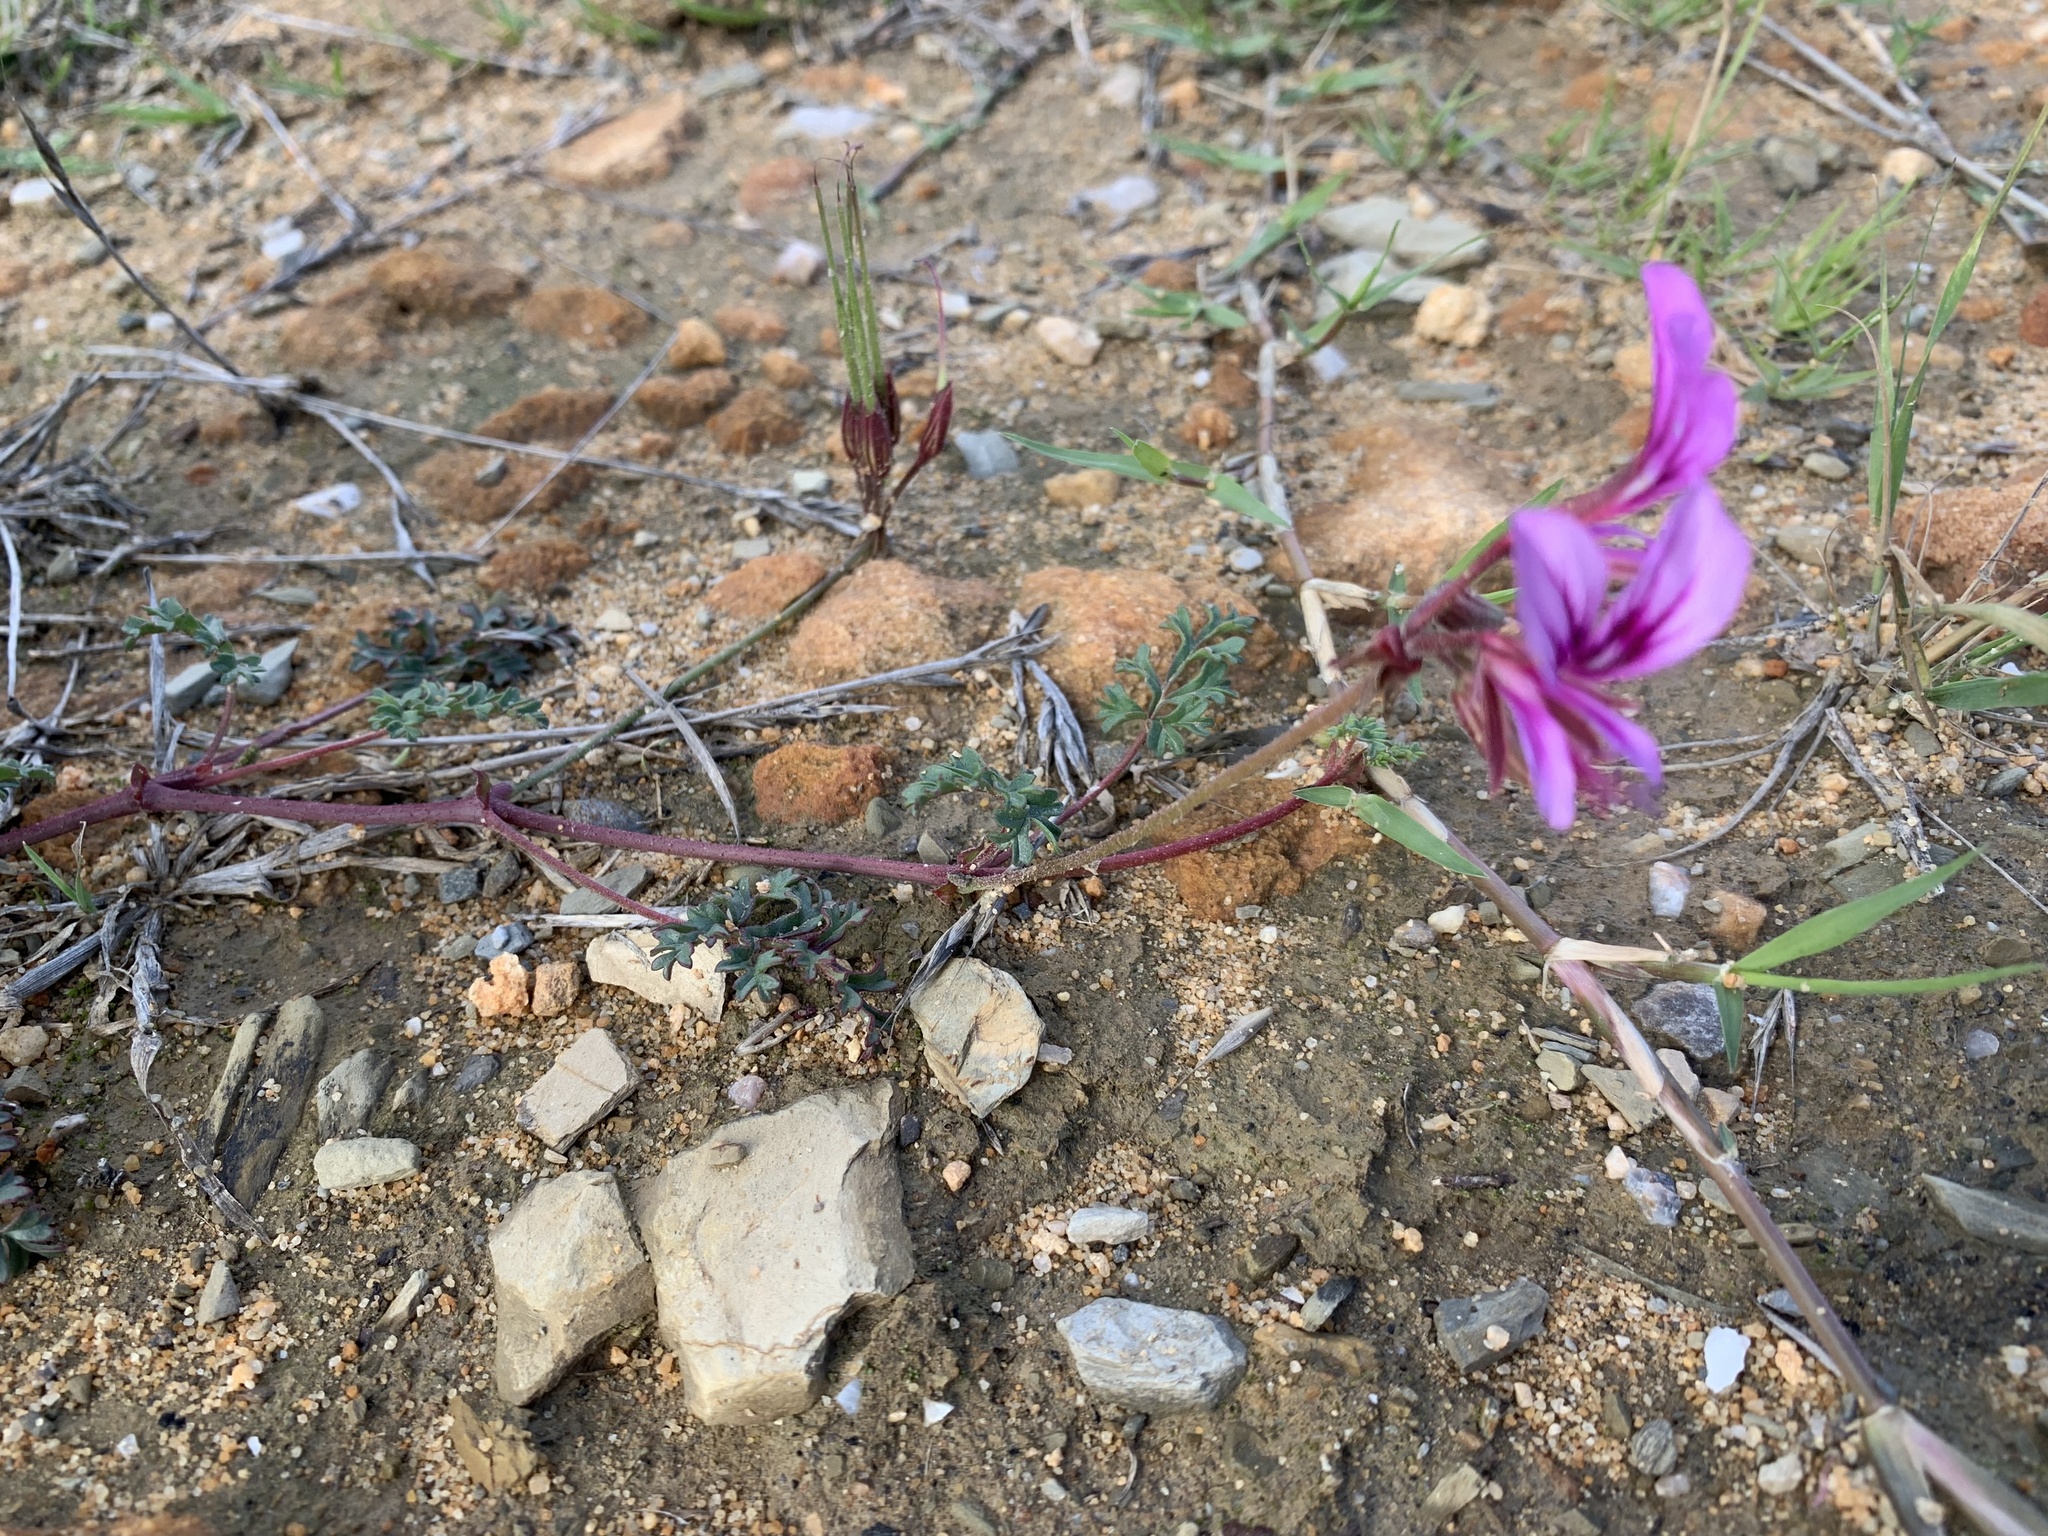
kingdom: Plantae
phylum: Tracheophyta
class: Magnoliopsida
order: Geraniales
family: Geraniaceae
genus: Pelargonium
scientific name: Pelargonium multicaule
